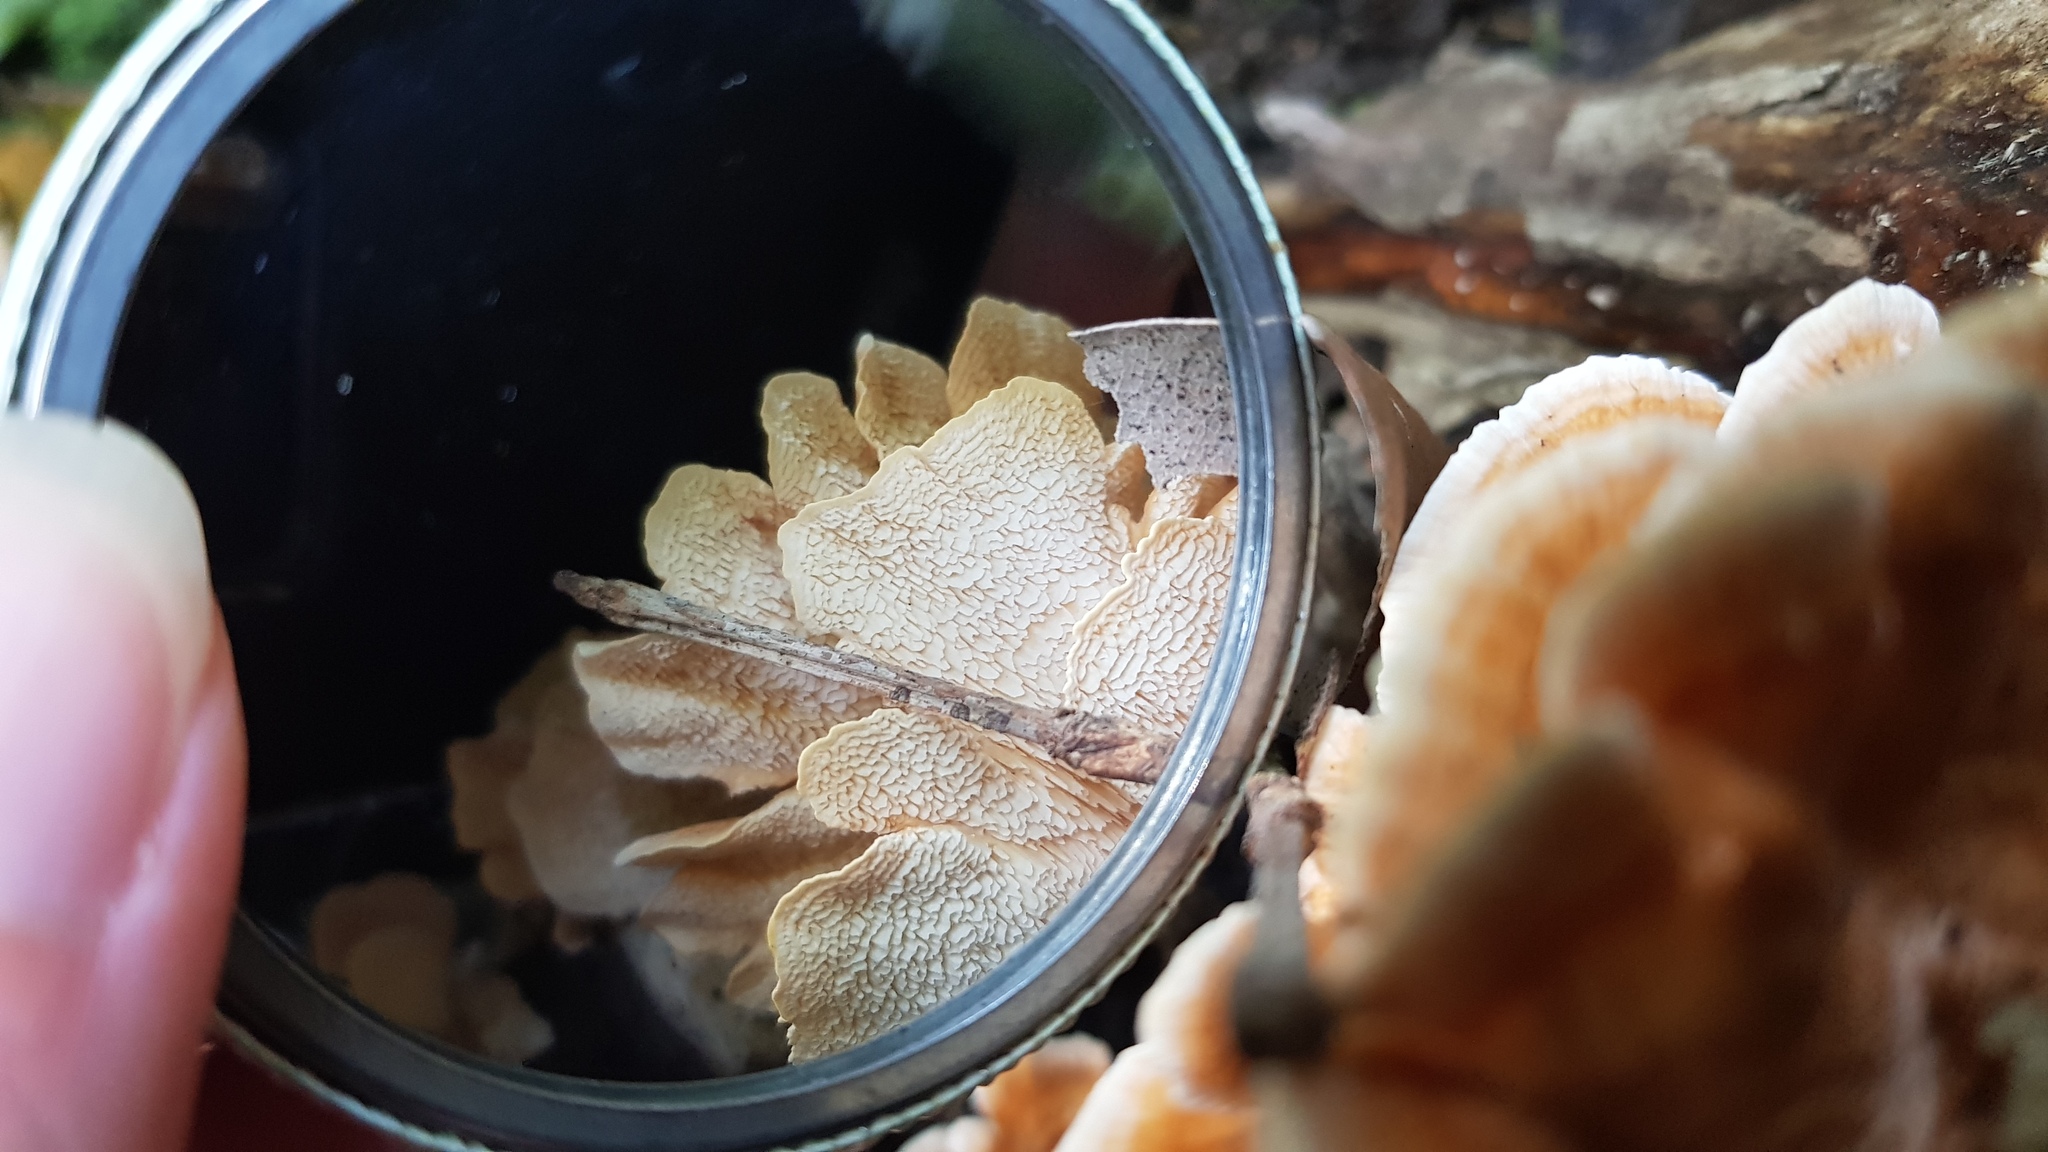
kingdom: Fungi
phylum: Basidiomycota
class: Agaricomycetes
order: Polyporales
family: Cerrenaceae
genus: Cerrena
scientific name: Cerrena zonata
